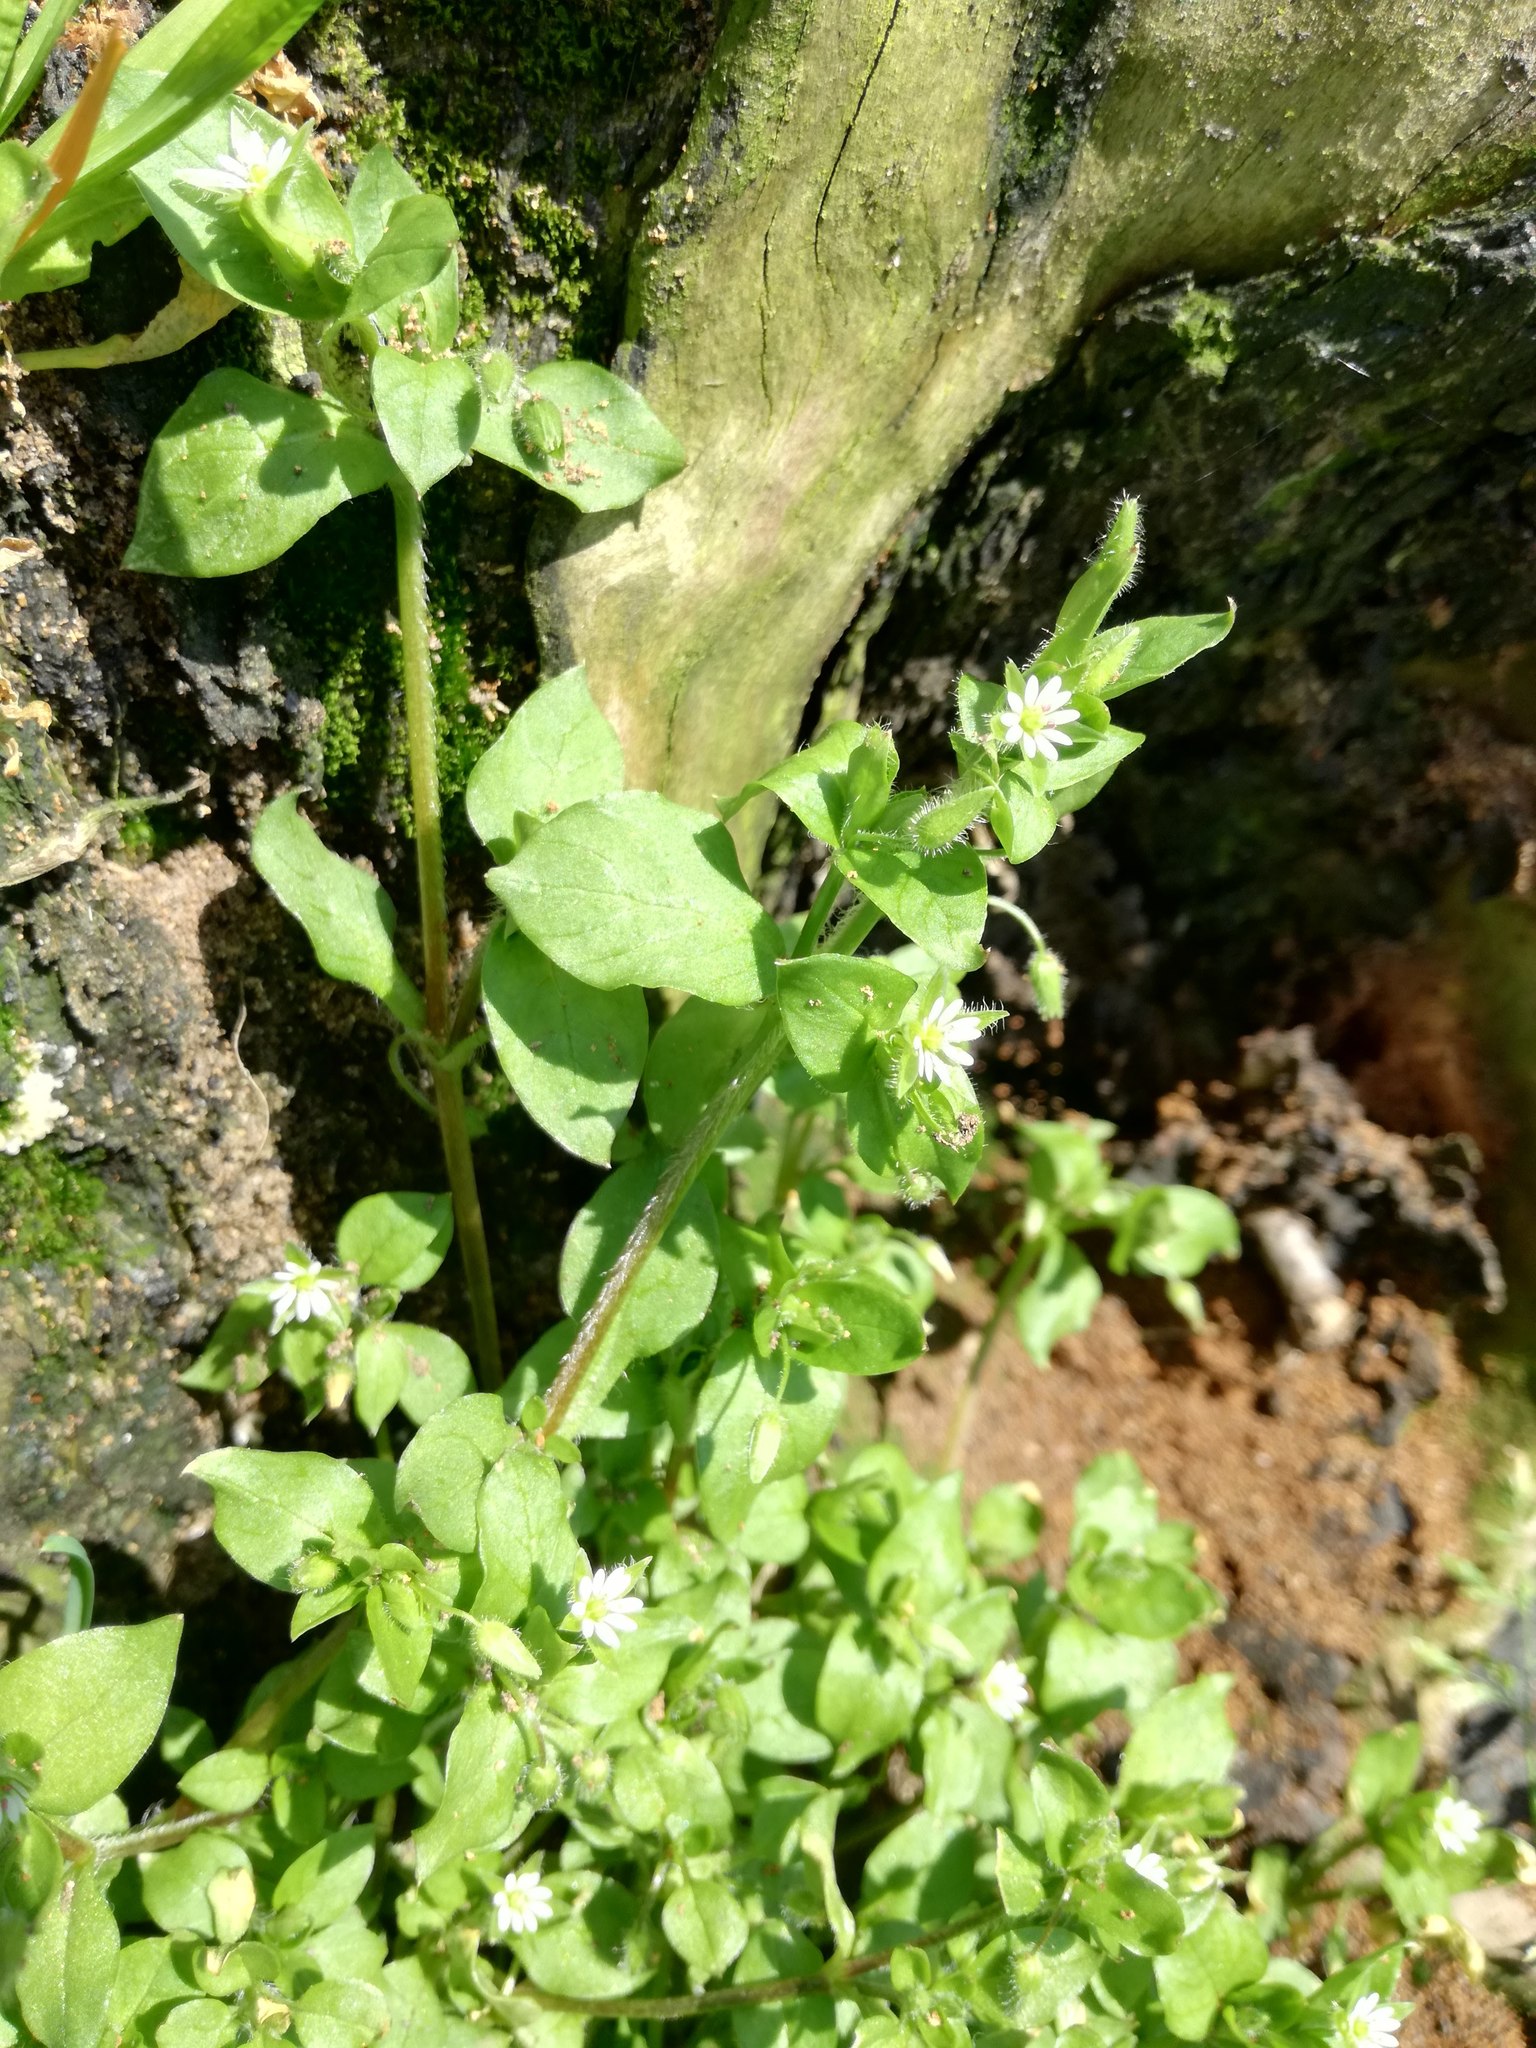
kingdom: Plantae
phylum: Tracheophyta
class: Magnoliopsida
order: Caryophyllales
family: Caryophyllaceae
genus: Stellaria
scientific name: Stellaria media
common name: Common chickweed
